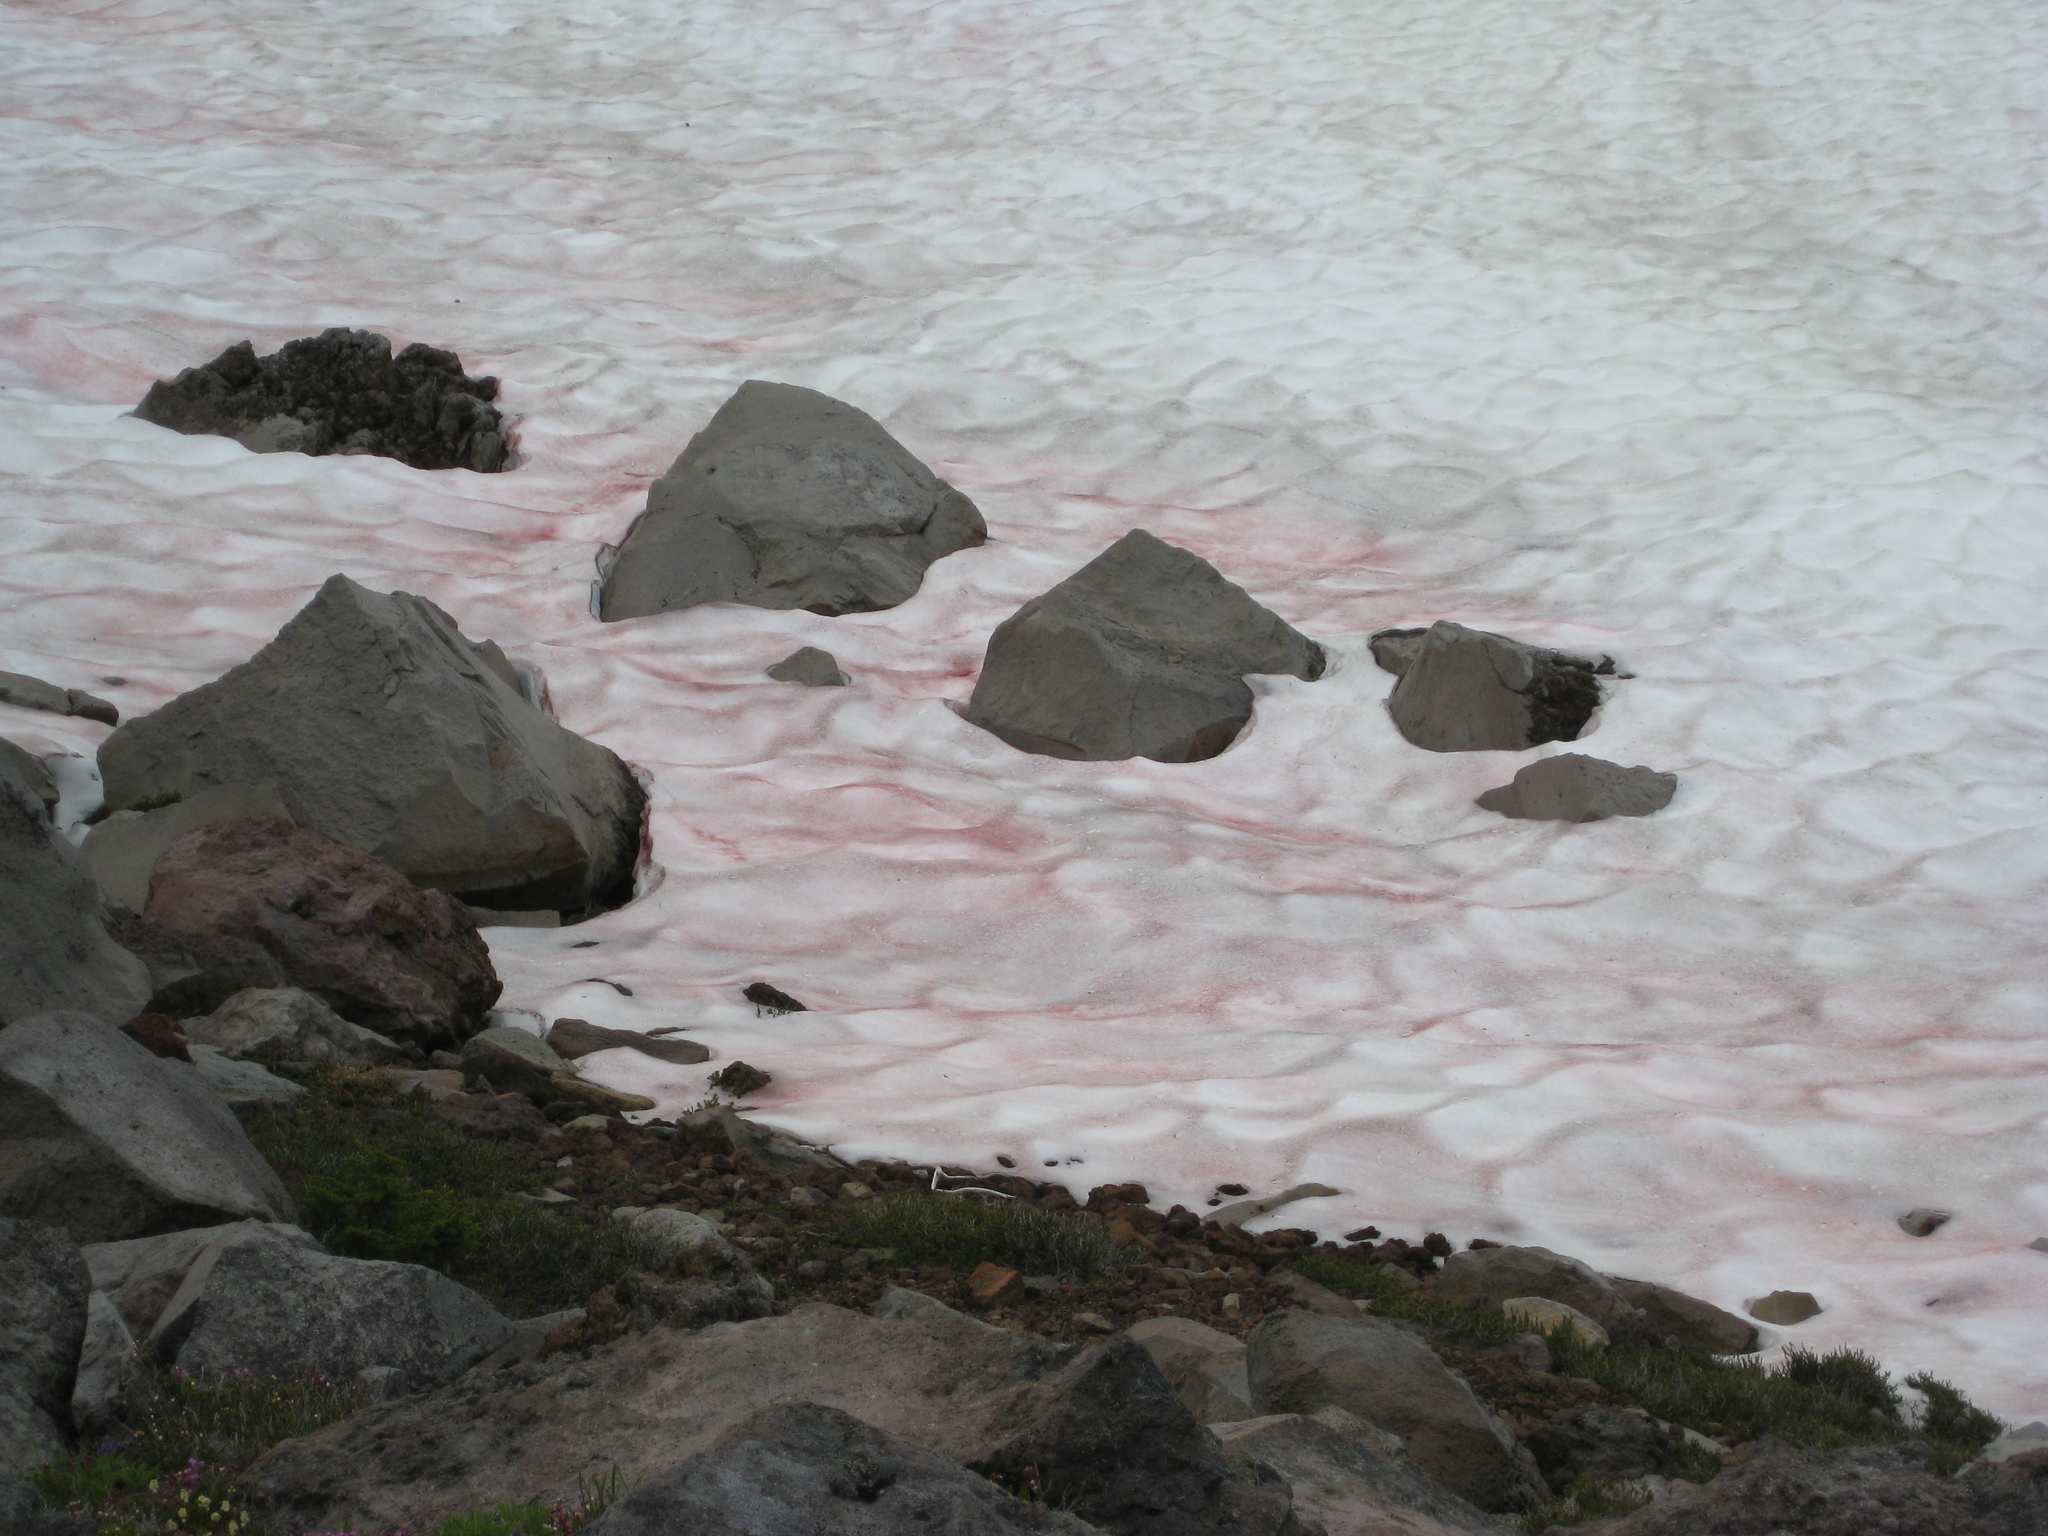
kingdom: Plantae
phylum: Chlorophyta
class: Chlorophyceae
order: Volvocales
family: Chlamydomonadaceae
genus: Chlamydomonas
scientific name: Chlamydomonas nivalis
